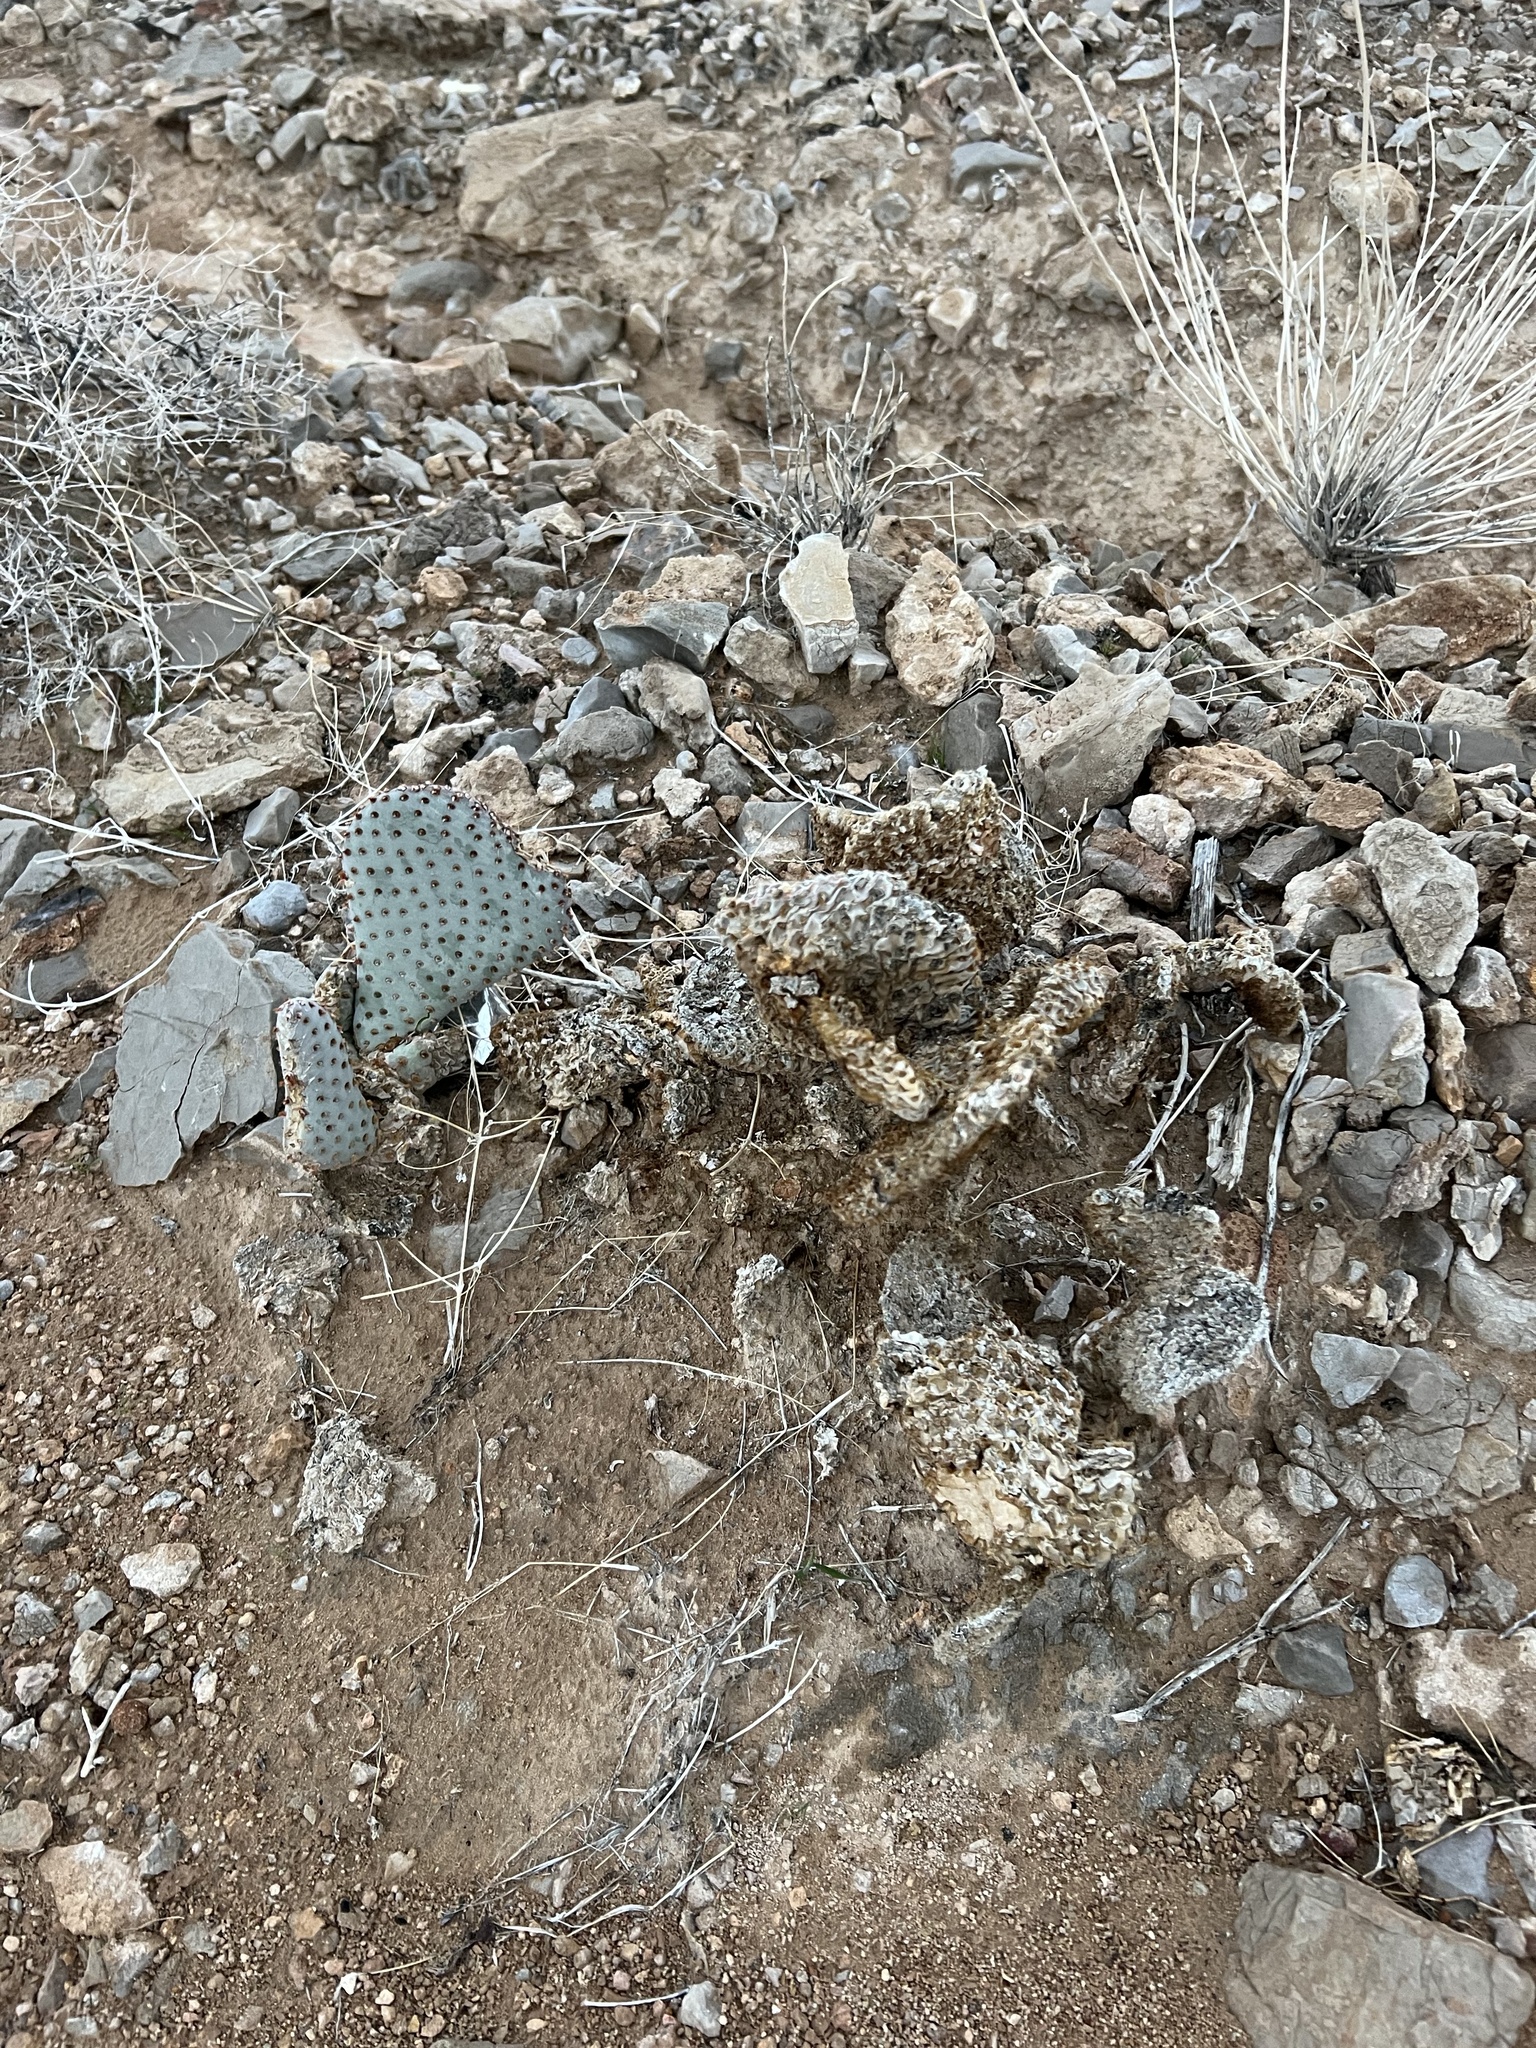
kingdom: Plantae
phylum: Tracheophyta
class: Magnoliopsida
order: Caryophyllales
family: Cactaceae
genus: Opuntia
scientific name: Opuntia basilaris
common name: Beavertail prickly-pear
